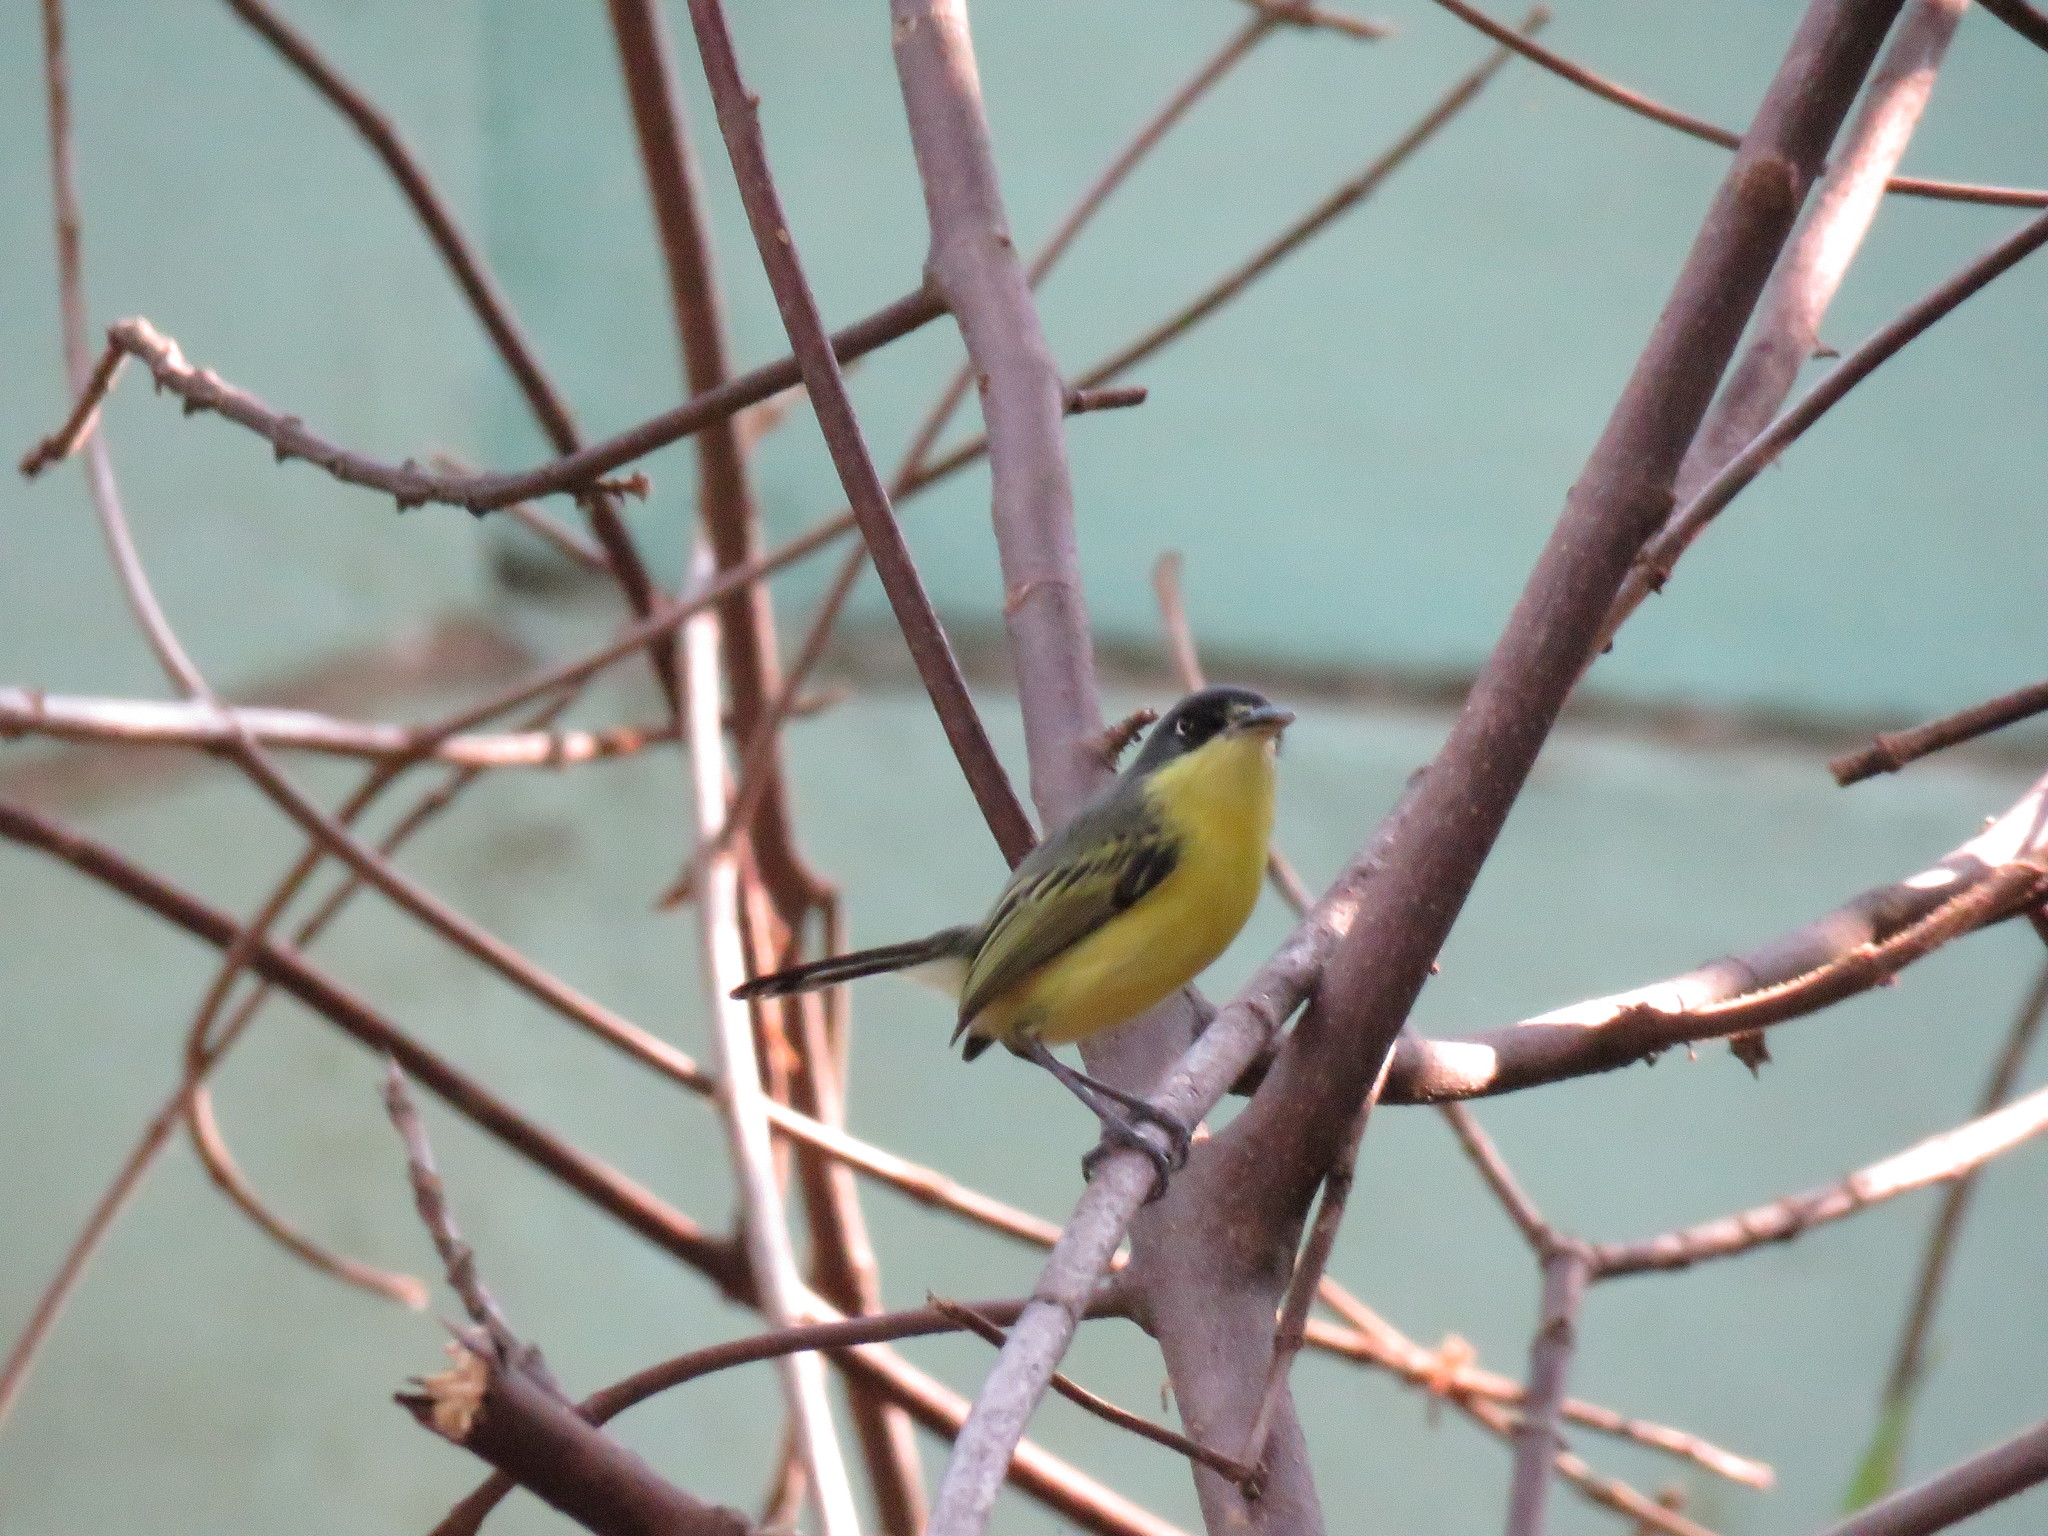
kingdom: Animalia
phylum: Chordata
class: Aves
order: Passeriformes
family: Tyrannidae
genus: Todirostrum
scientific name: Todirostrum cinereum
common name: Common tody-flycatcher
